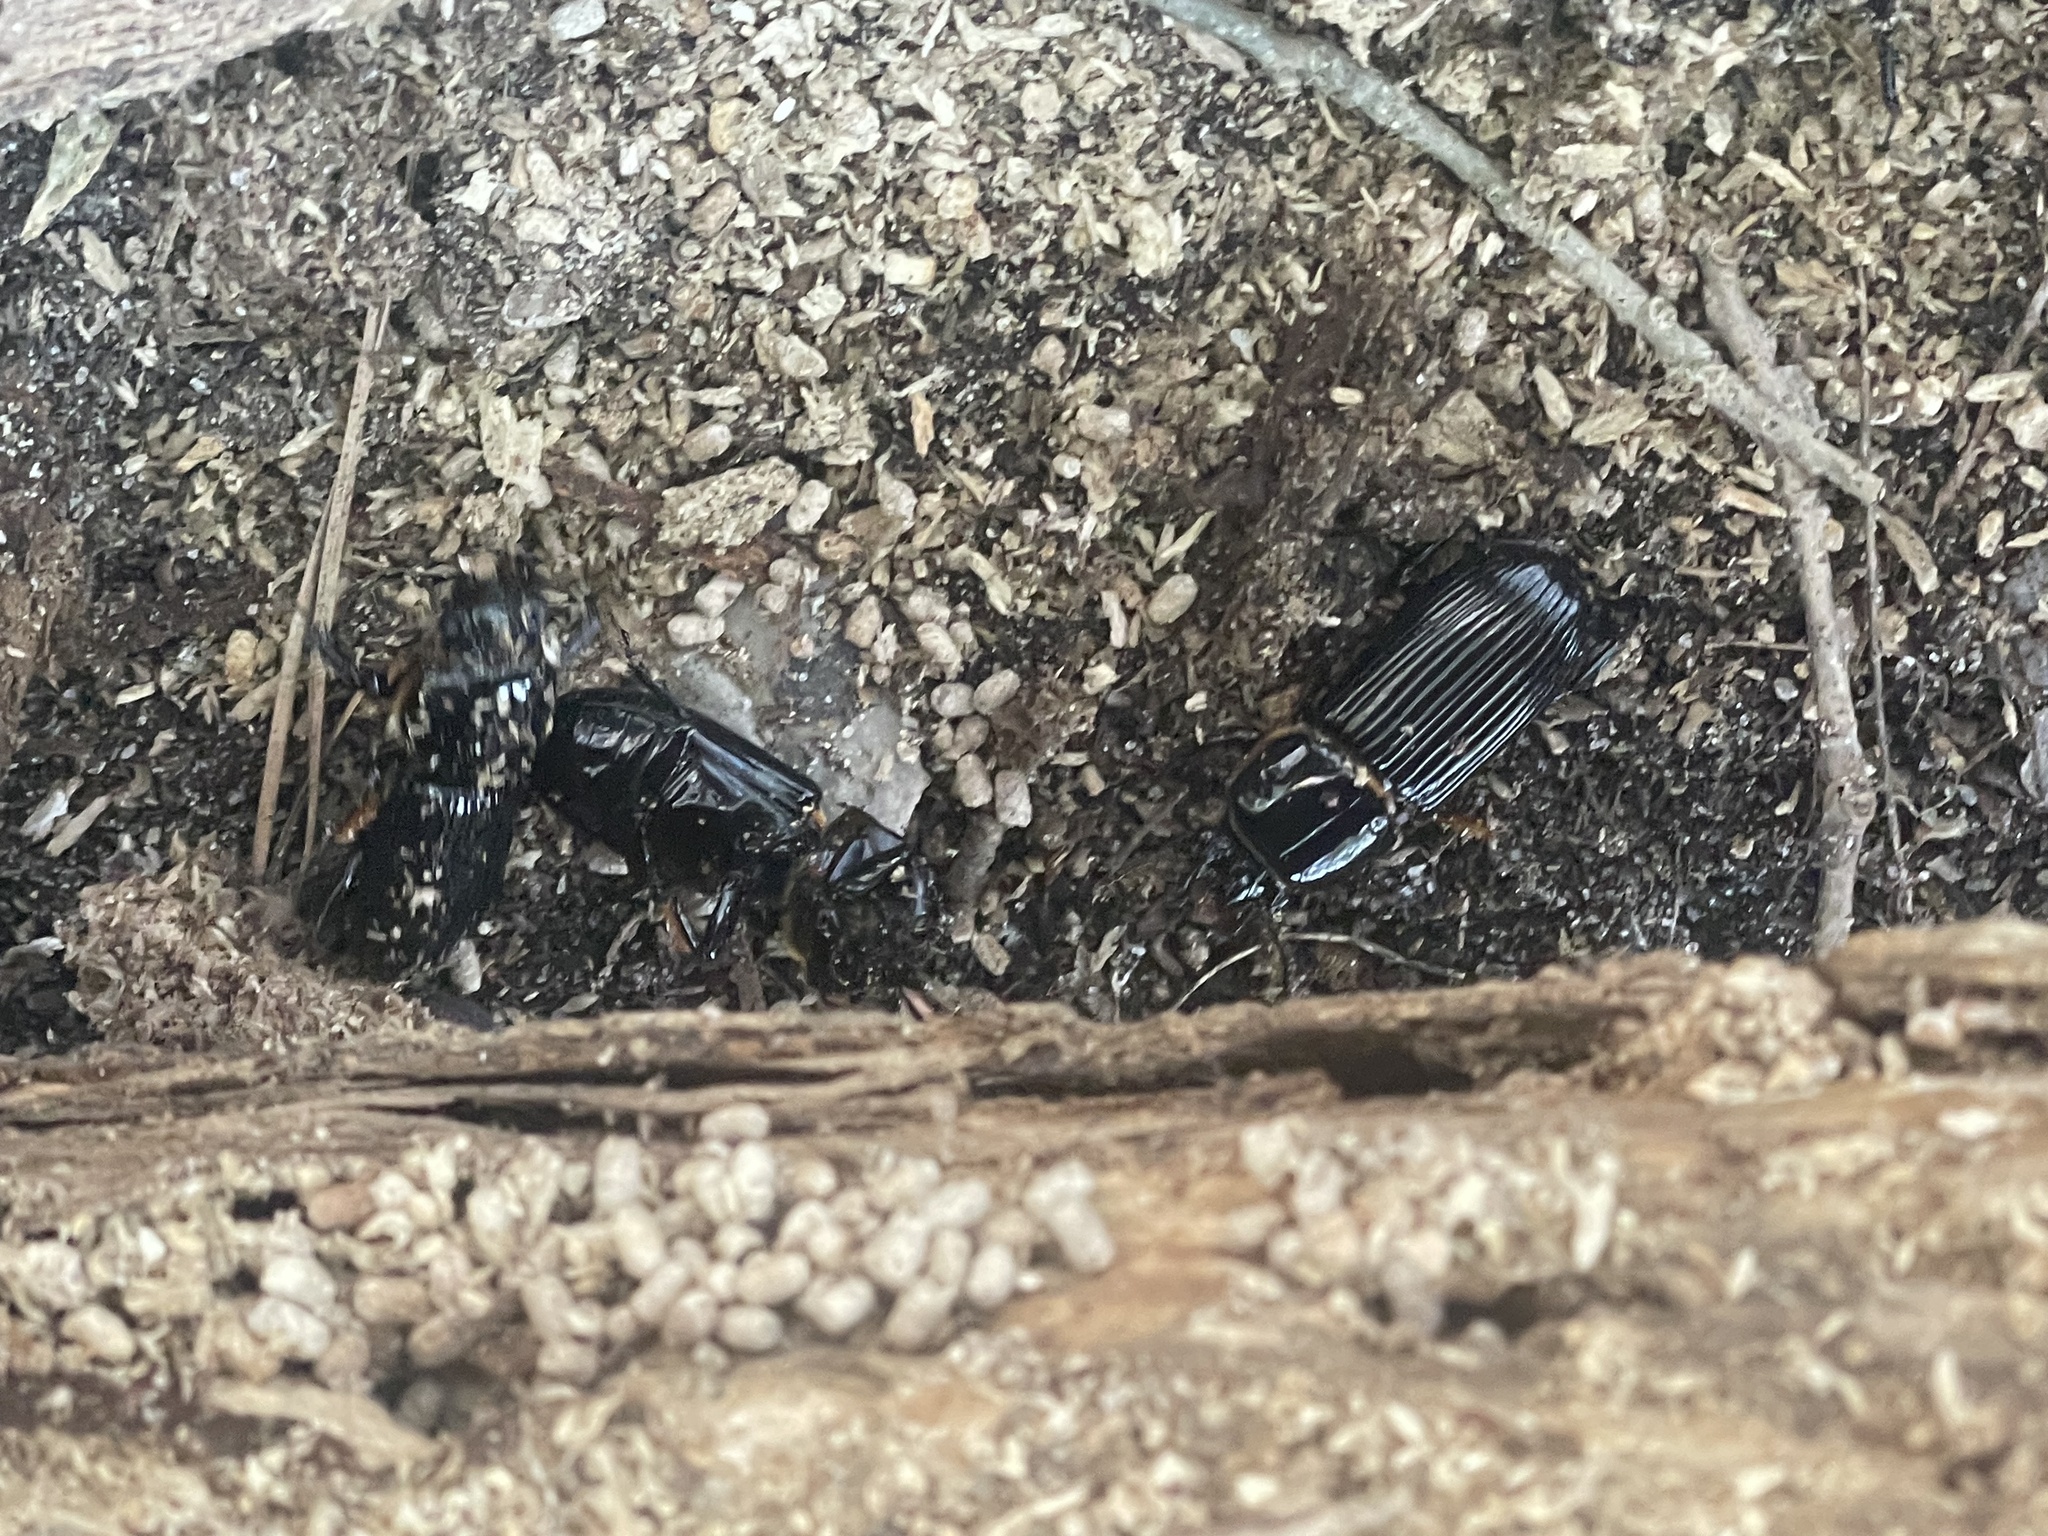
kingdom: Animalia
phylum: Arthropoda
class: Insecta
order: Coleoptera
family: Passalidae
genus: Odontotaenius
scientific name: Odontotaenius disjunctus
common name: Patent leather beetle
